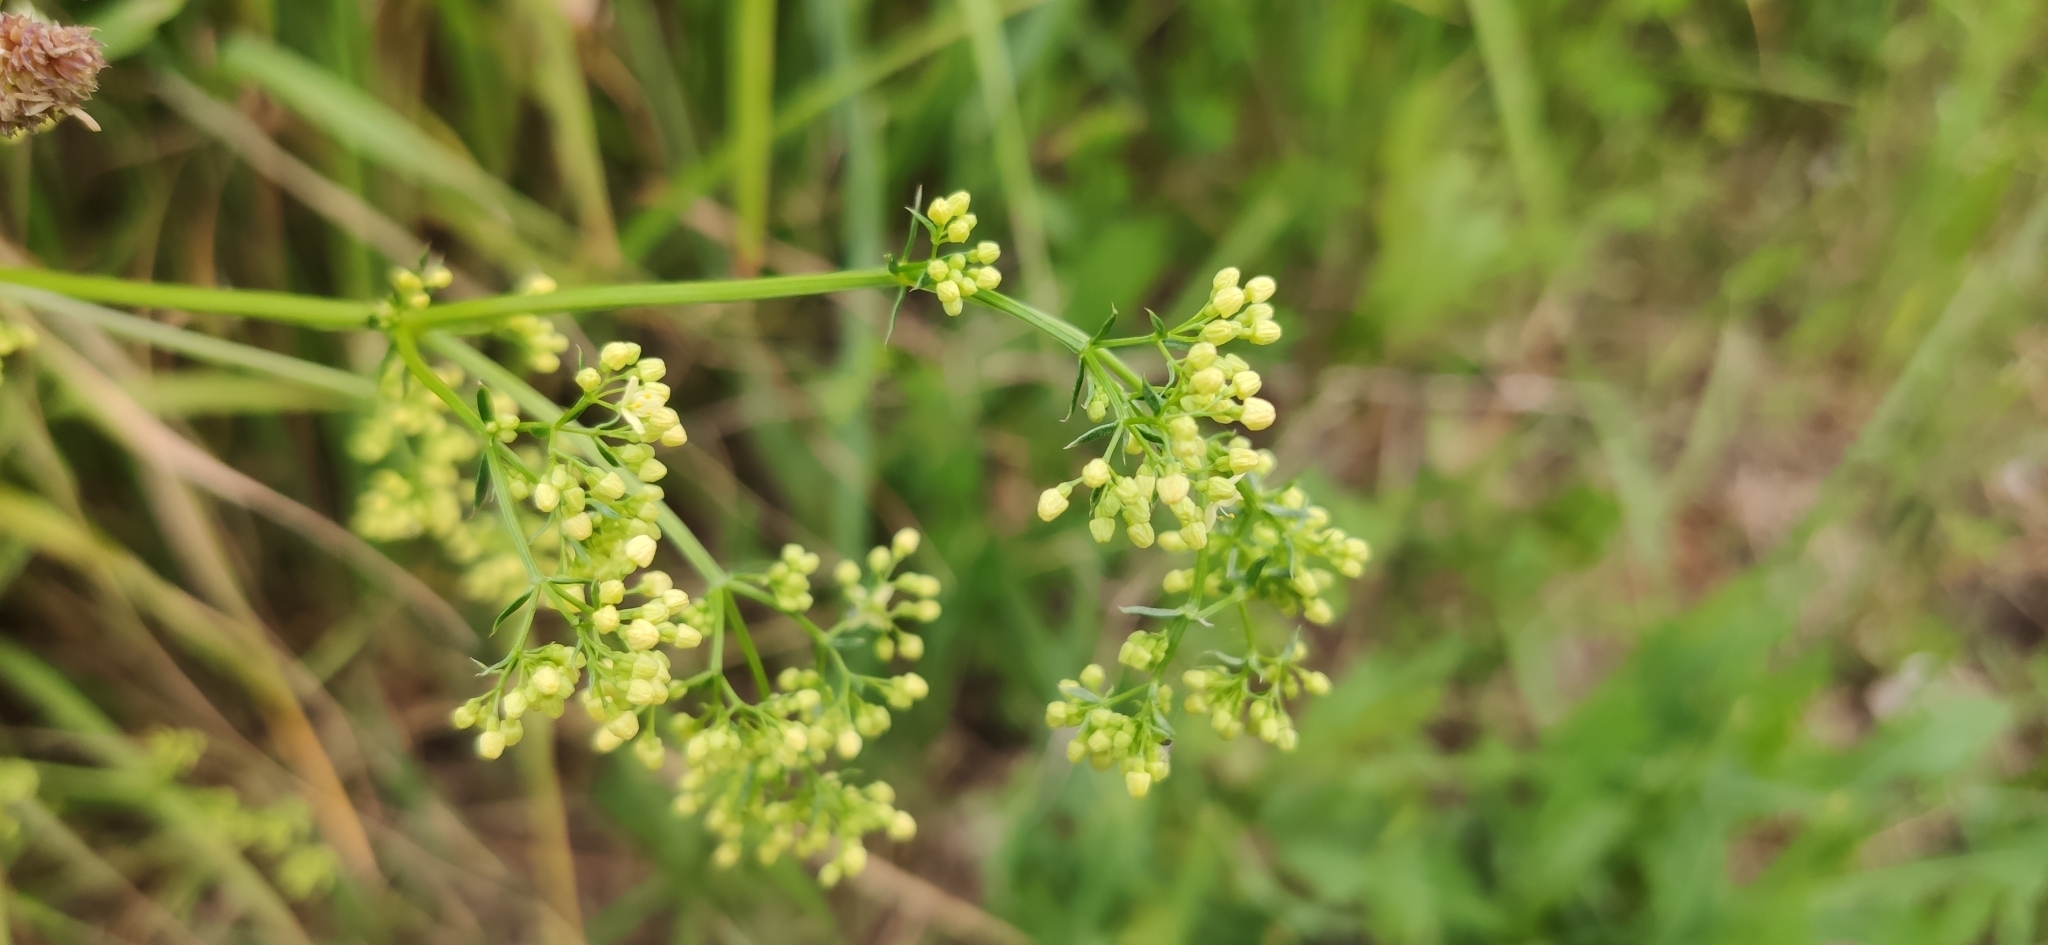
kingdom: Plantae
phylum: Tracheophyta
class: Magnoliopsida
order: Gentianales
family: Rubiaceae
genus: Galium
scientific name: Galium pomeranicum
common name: Bedstraw
